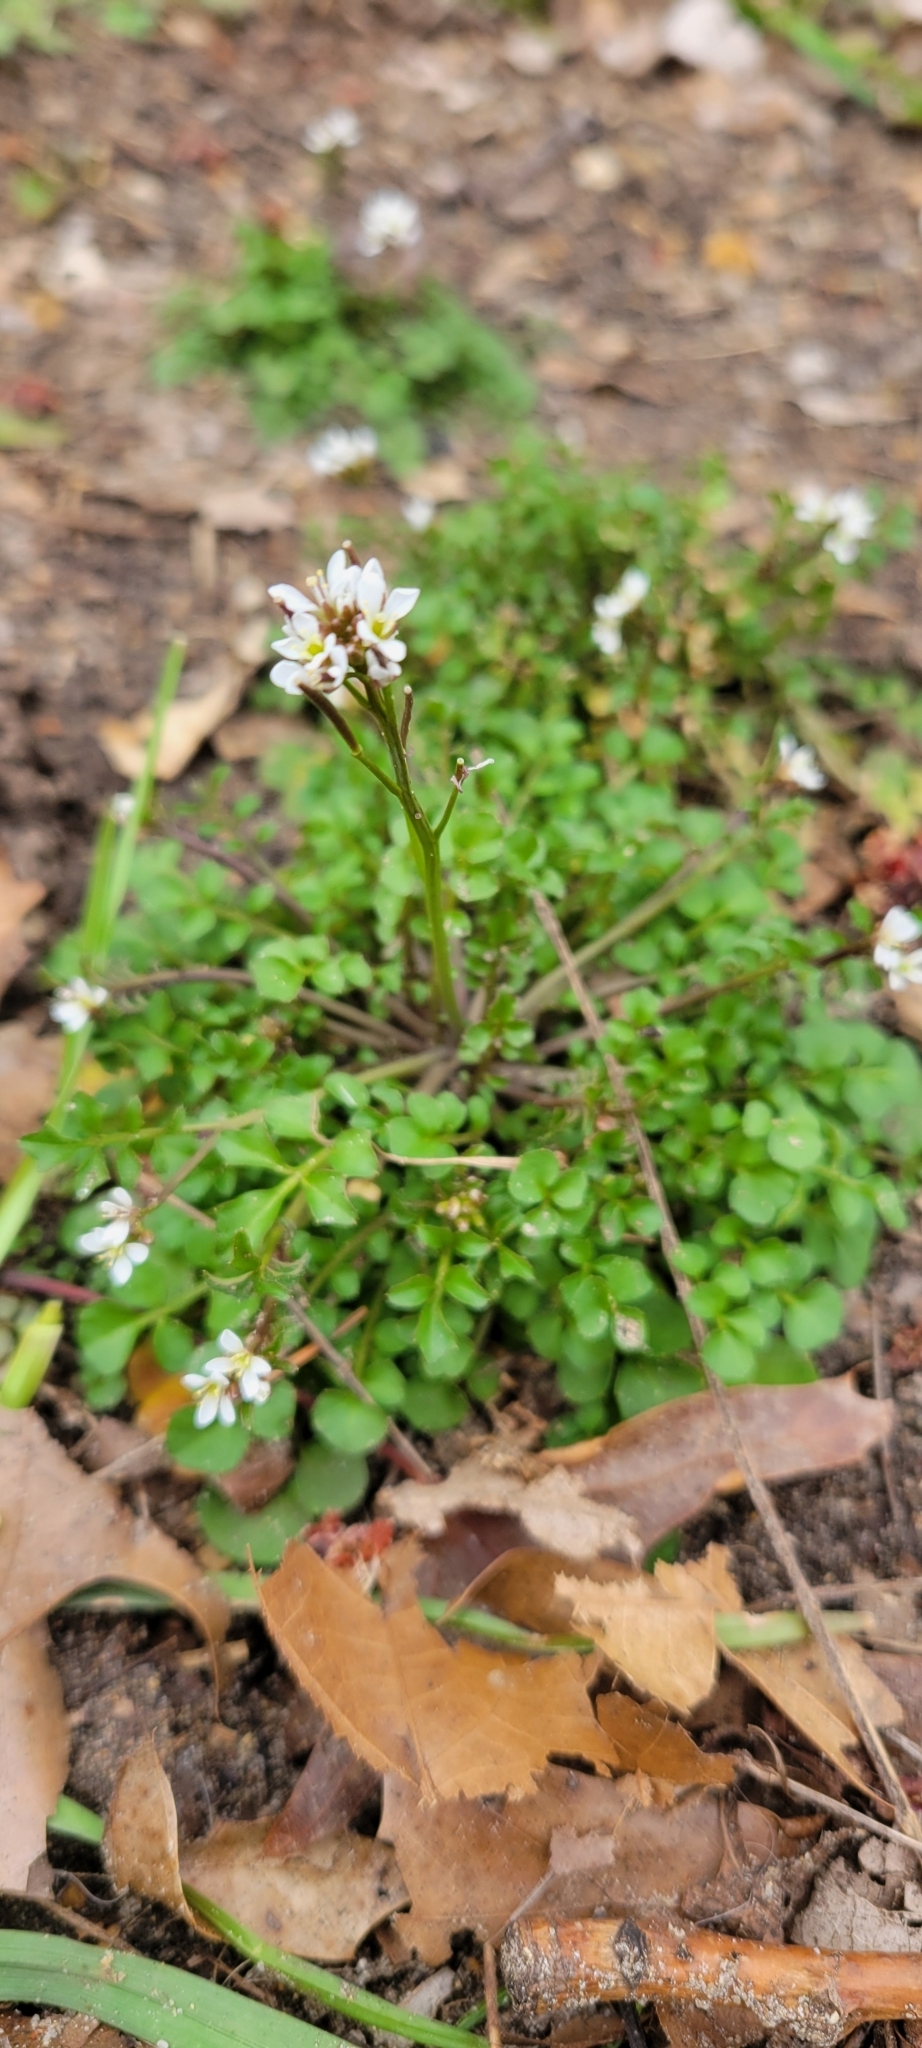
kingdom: Plantae
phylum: Tracheophyta
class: Magnoliopsida
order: Brassicales
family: Brassicaceae
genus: Cardamine
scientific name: Cardamine hirsuta
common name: Hairy bittercress
